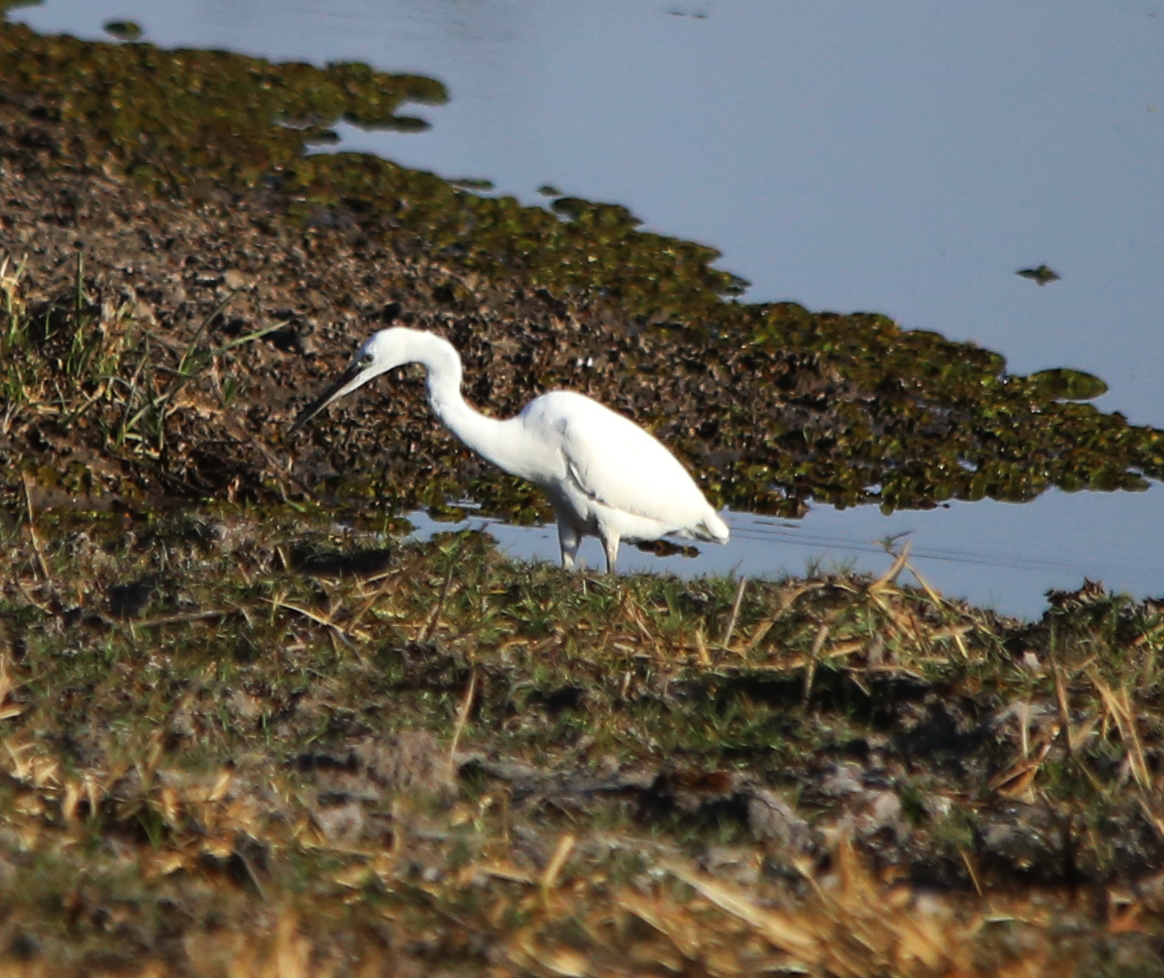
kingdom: Animalia
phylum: Chordata
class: Aves
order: Pelecaniformes
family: Ardeidae
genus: Egretta
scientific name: Egretta garzetta
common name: Little egret
